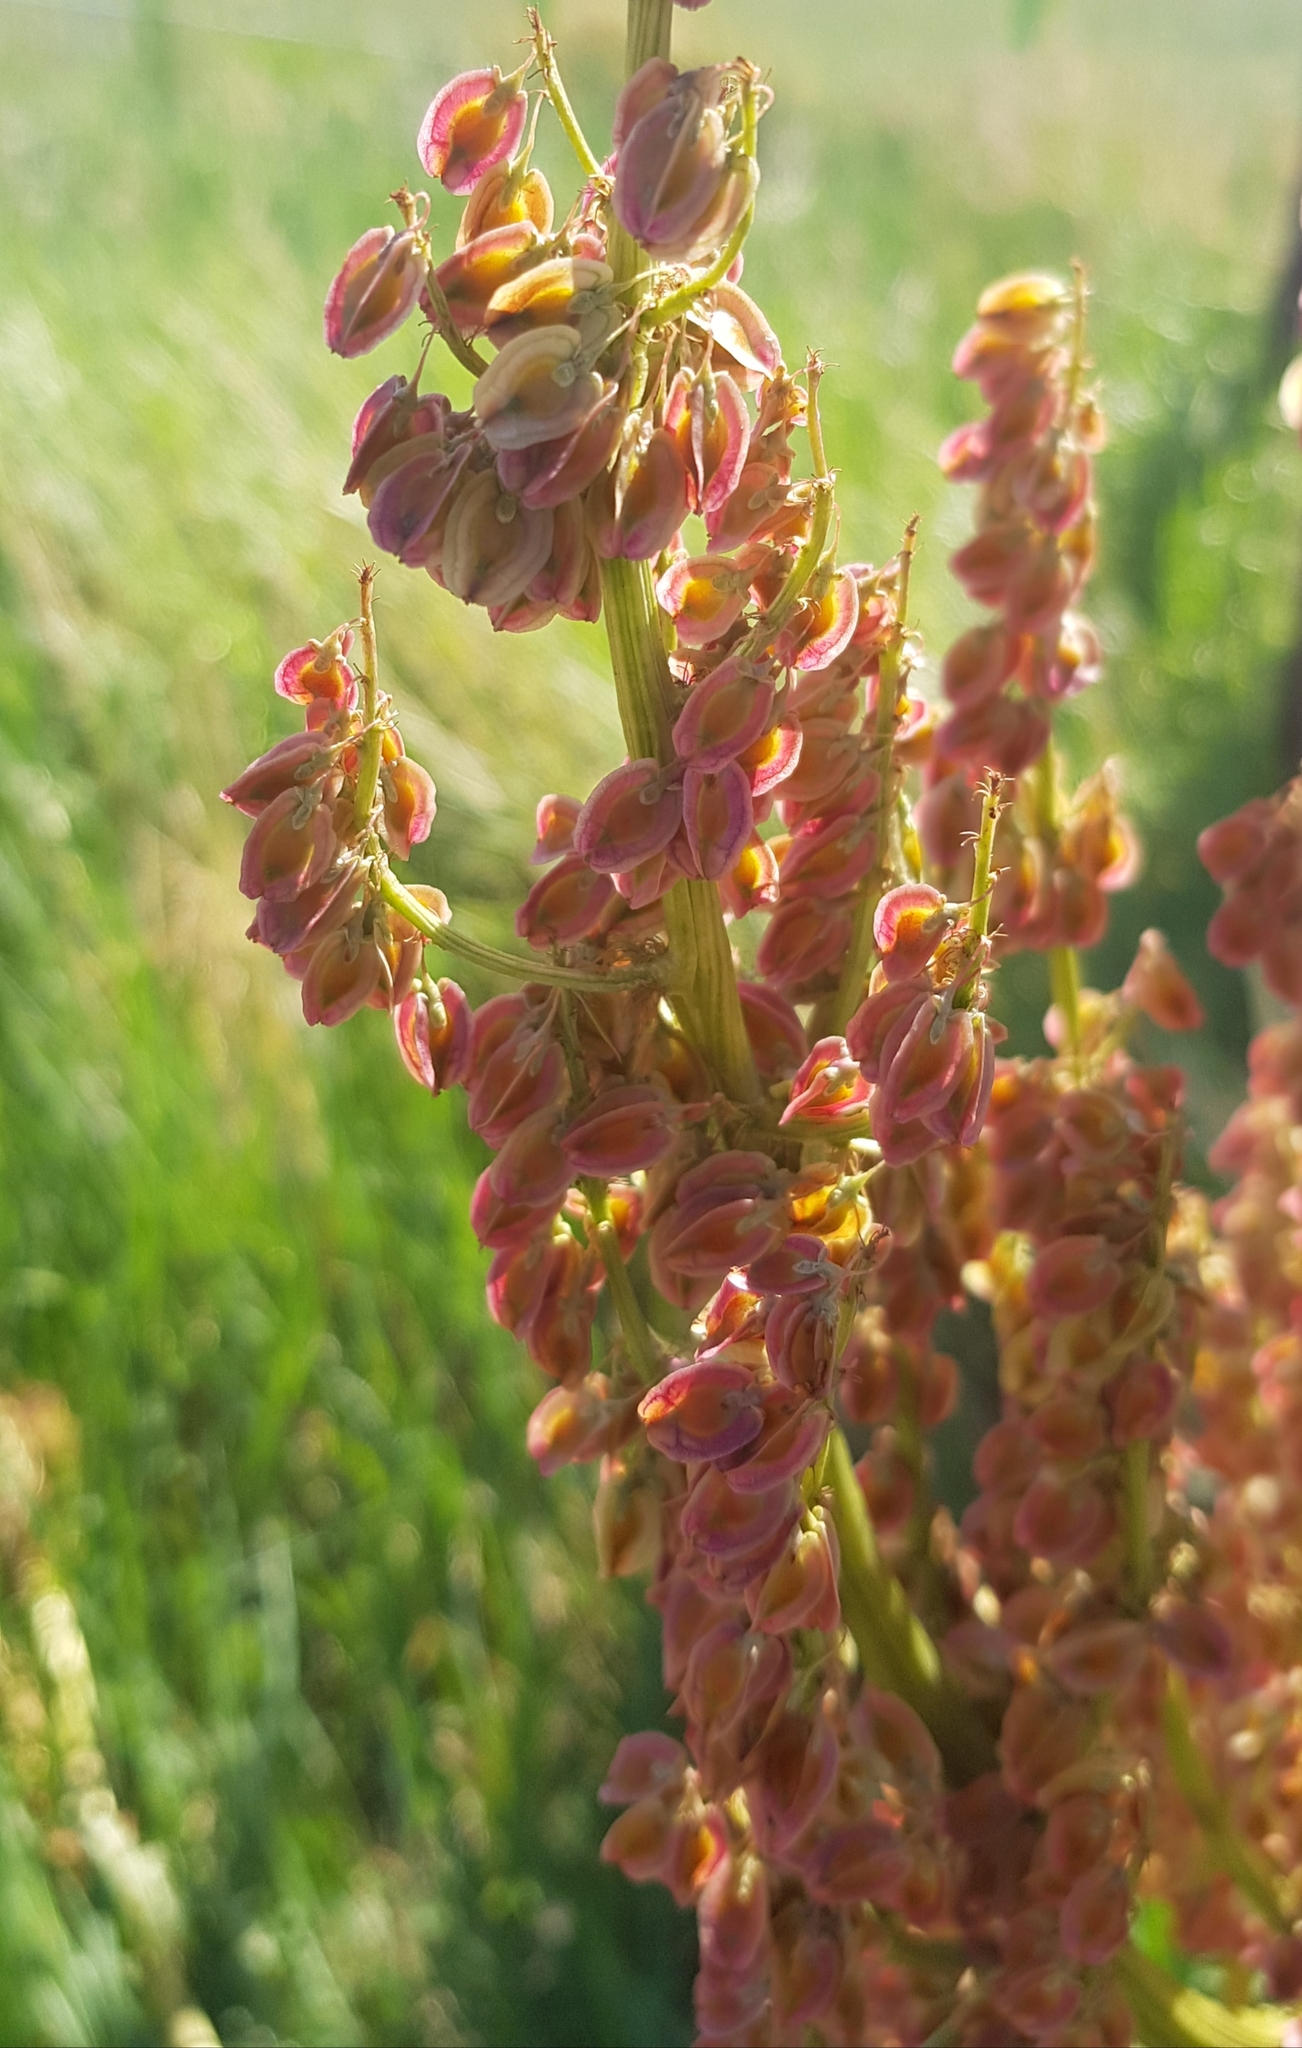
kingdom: Plantae
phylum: Tracheophyta
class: Magnoliopsida
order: Caryophyllales
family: Polygonaceae
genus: Rumex
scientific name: Rumex thyrsiflorus
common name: Garden sorrel
